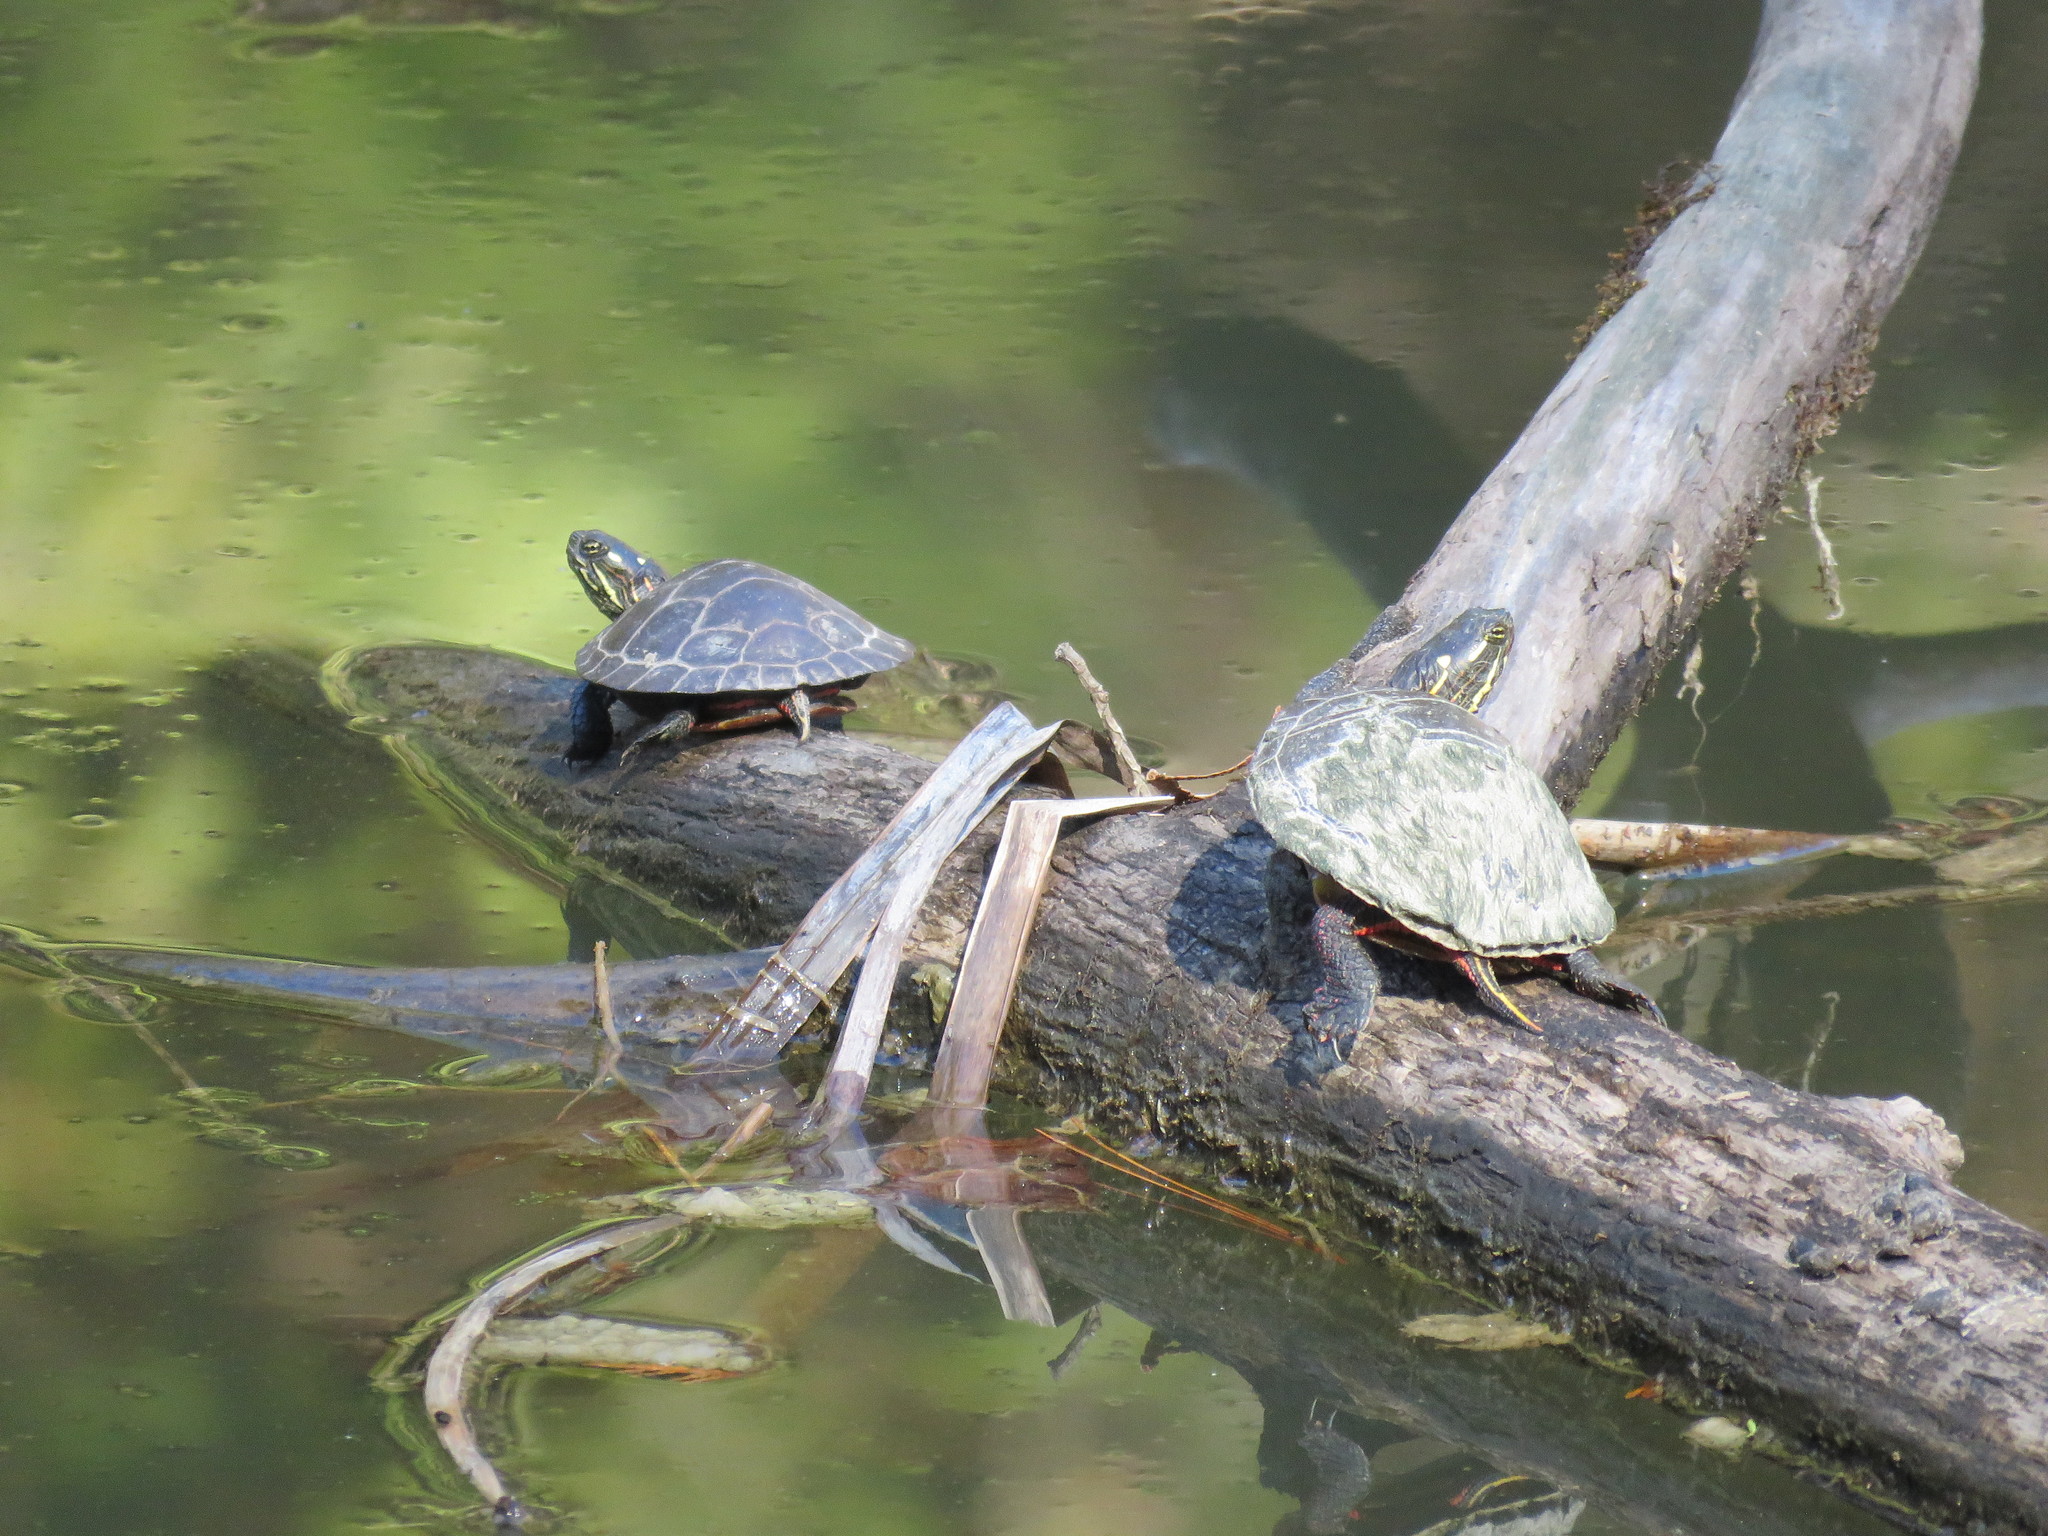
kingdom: Animalia
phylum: Chordata
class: Testudines
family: Emydidae
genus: Chrysemys
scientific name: Chrysemys picta
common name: Painted turtle
